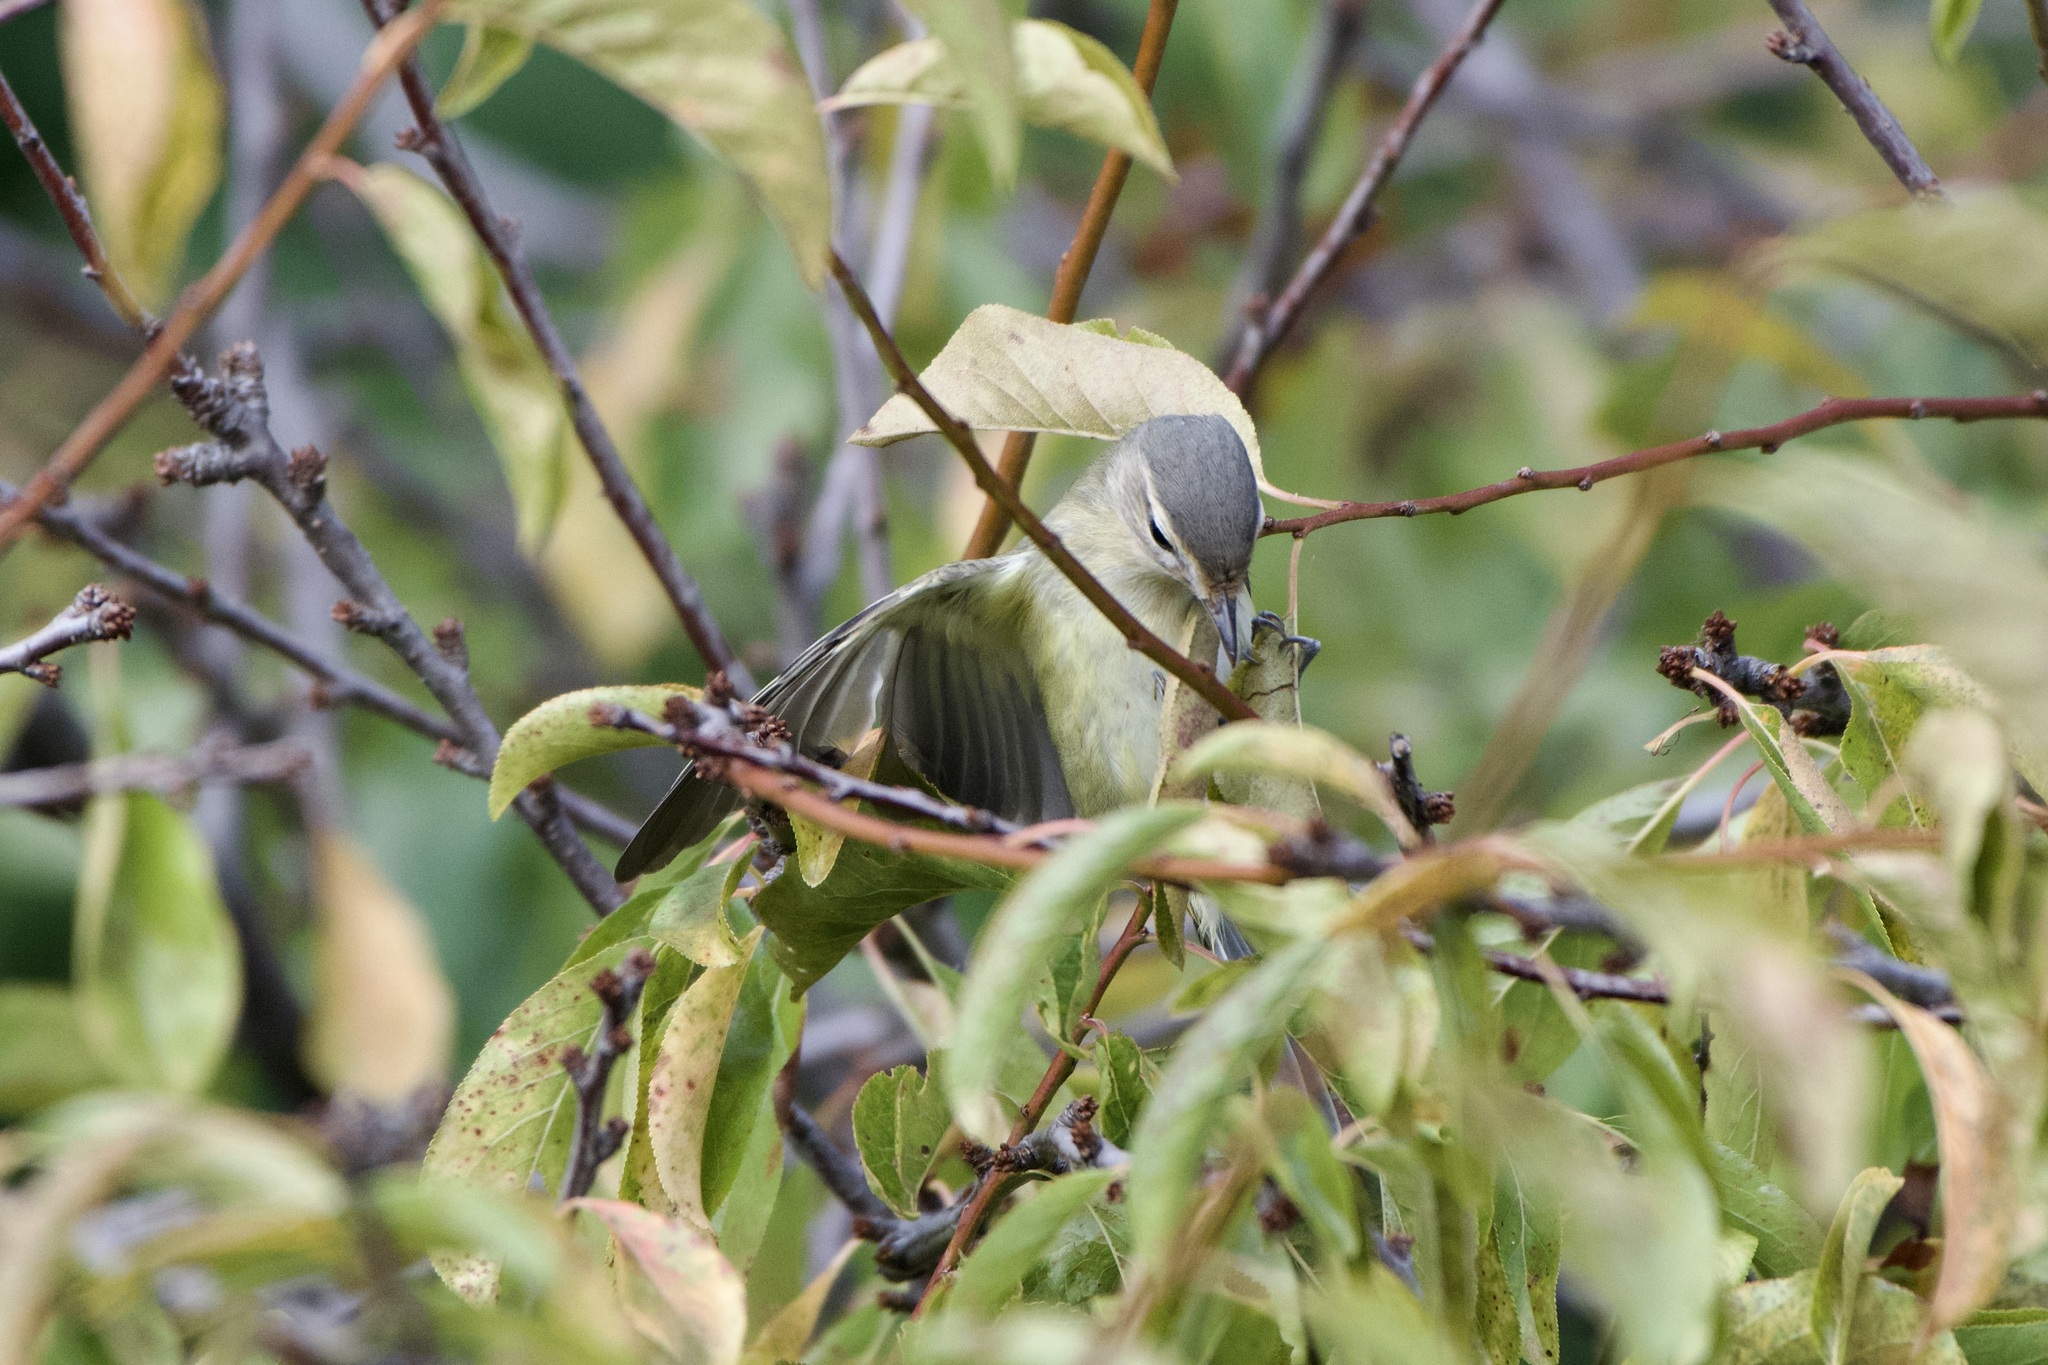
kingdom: Animalia
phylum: Chordata
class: Aves
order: Passeriformes
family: Vireonidae
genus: Vireo
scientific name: Vireo gilvus
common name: Warbling vireo
